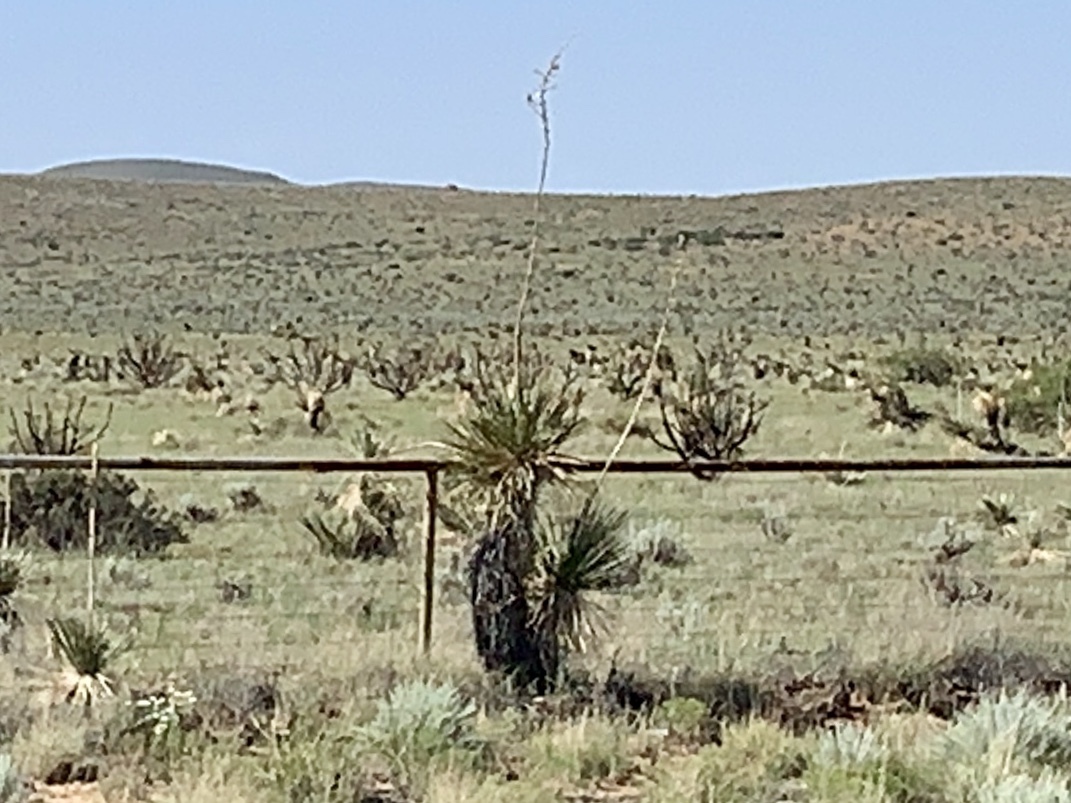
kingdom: Plantae
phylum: Tracheophyta
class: Liliopsida
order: Asparagales
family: Asparagaceae
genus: Yucca
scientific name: Yucca elata
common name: Palmella
